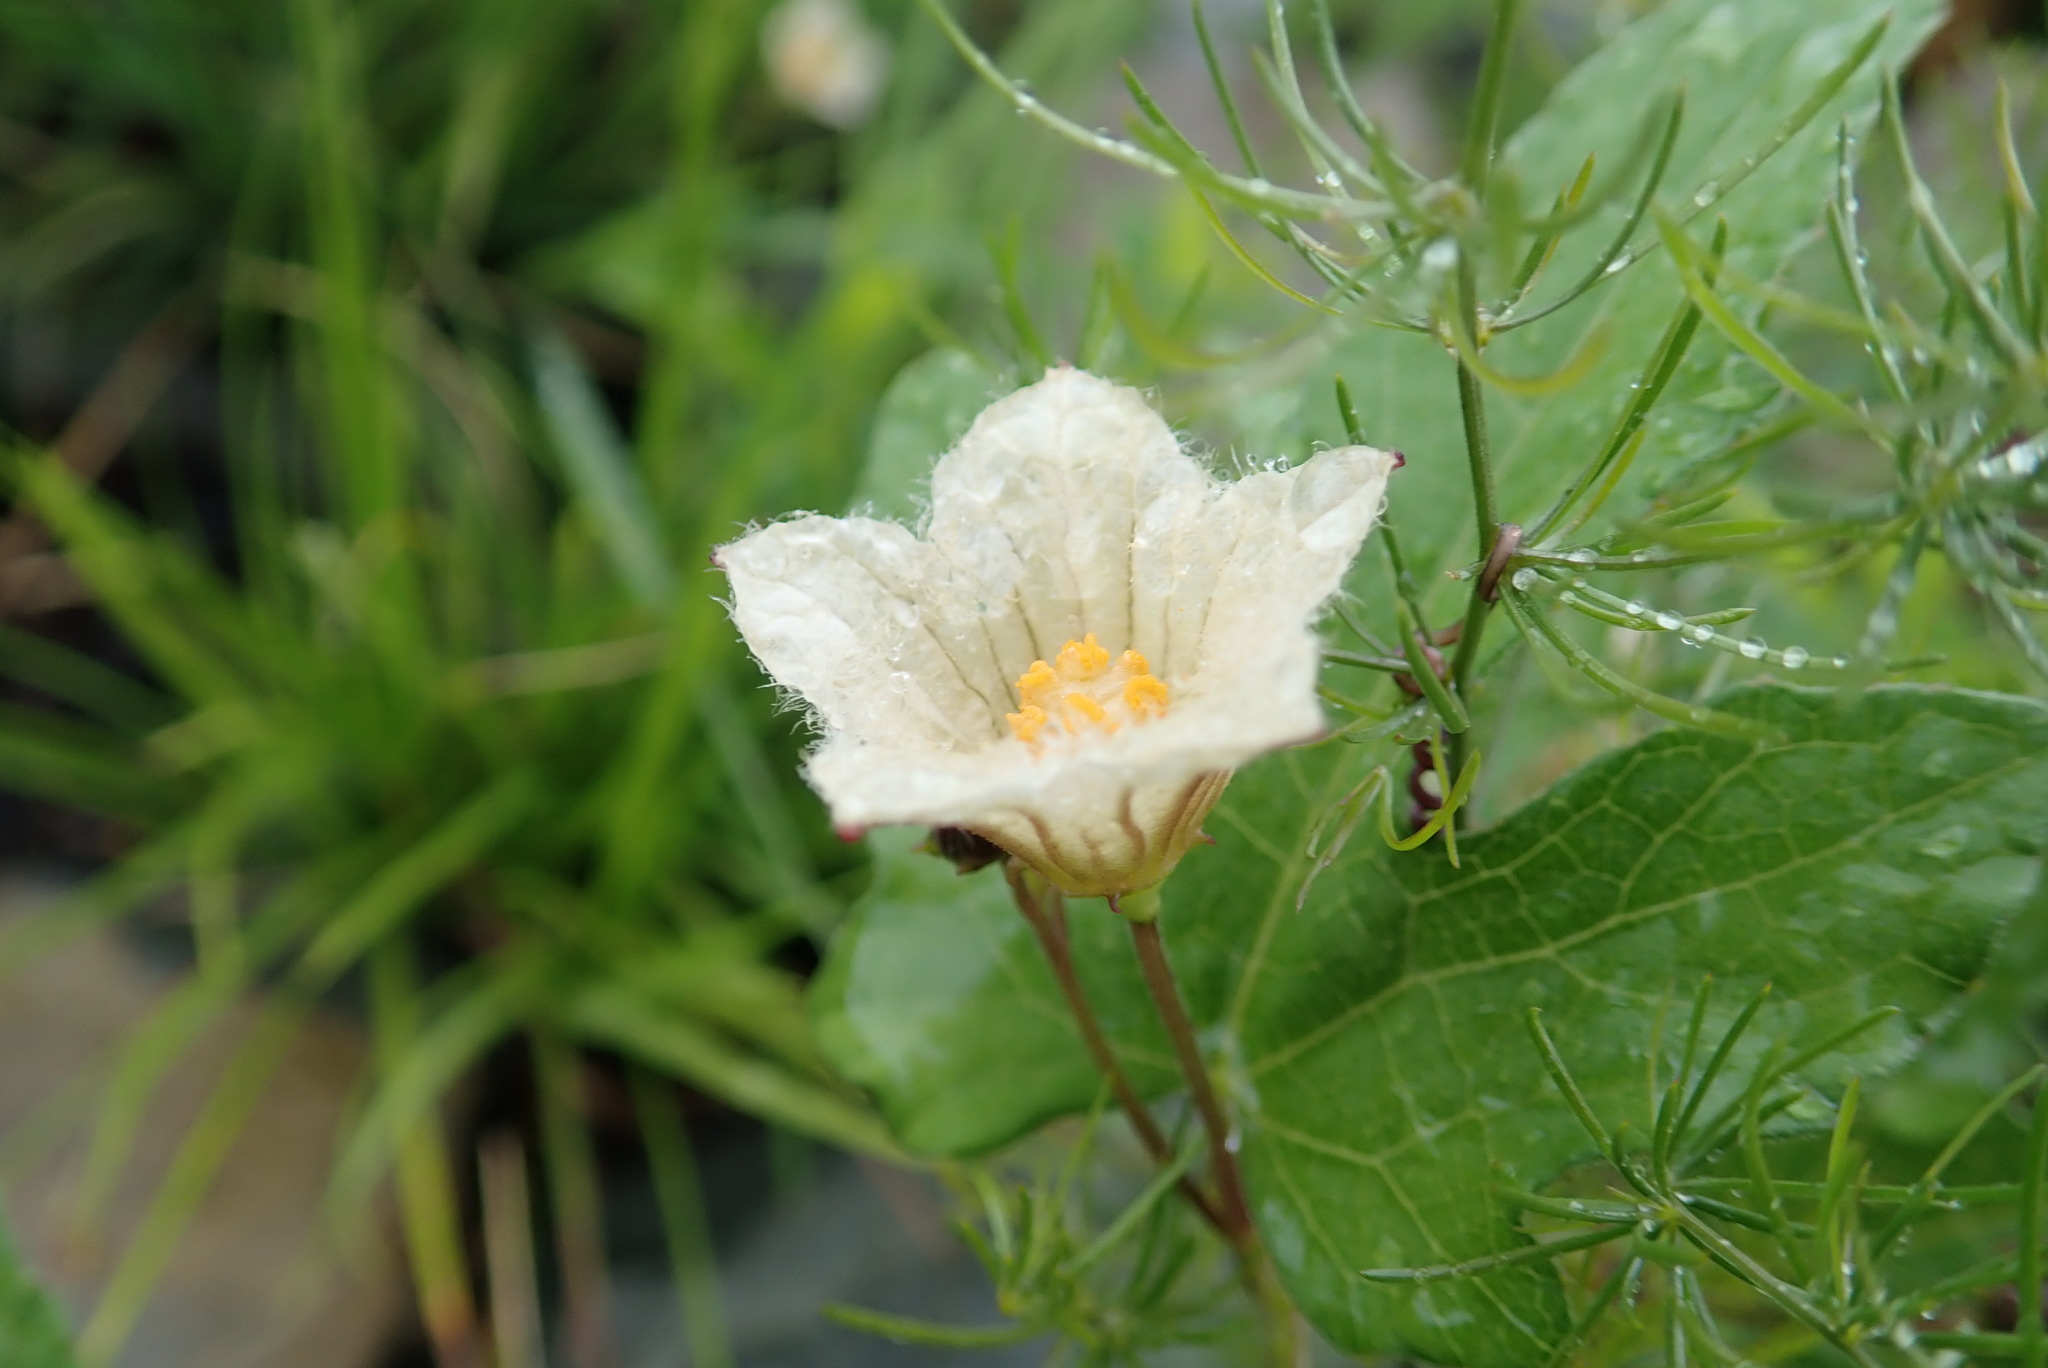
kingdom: Plantae
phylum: Tracheophyta
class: Magnoliopsida
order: Cucurbitales
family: Cucurbitaceae
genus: Coccinia
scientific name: Coccinia adoensis
